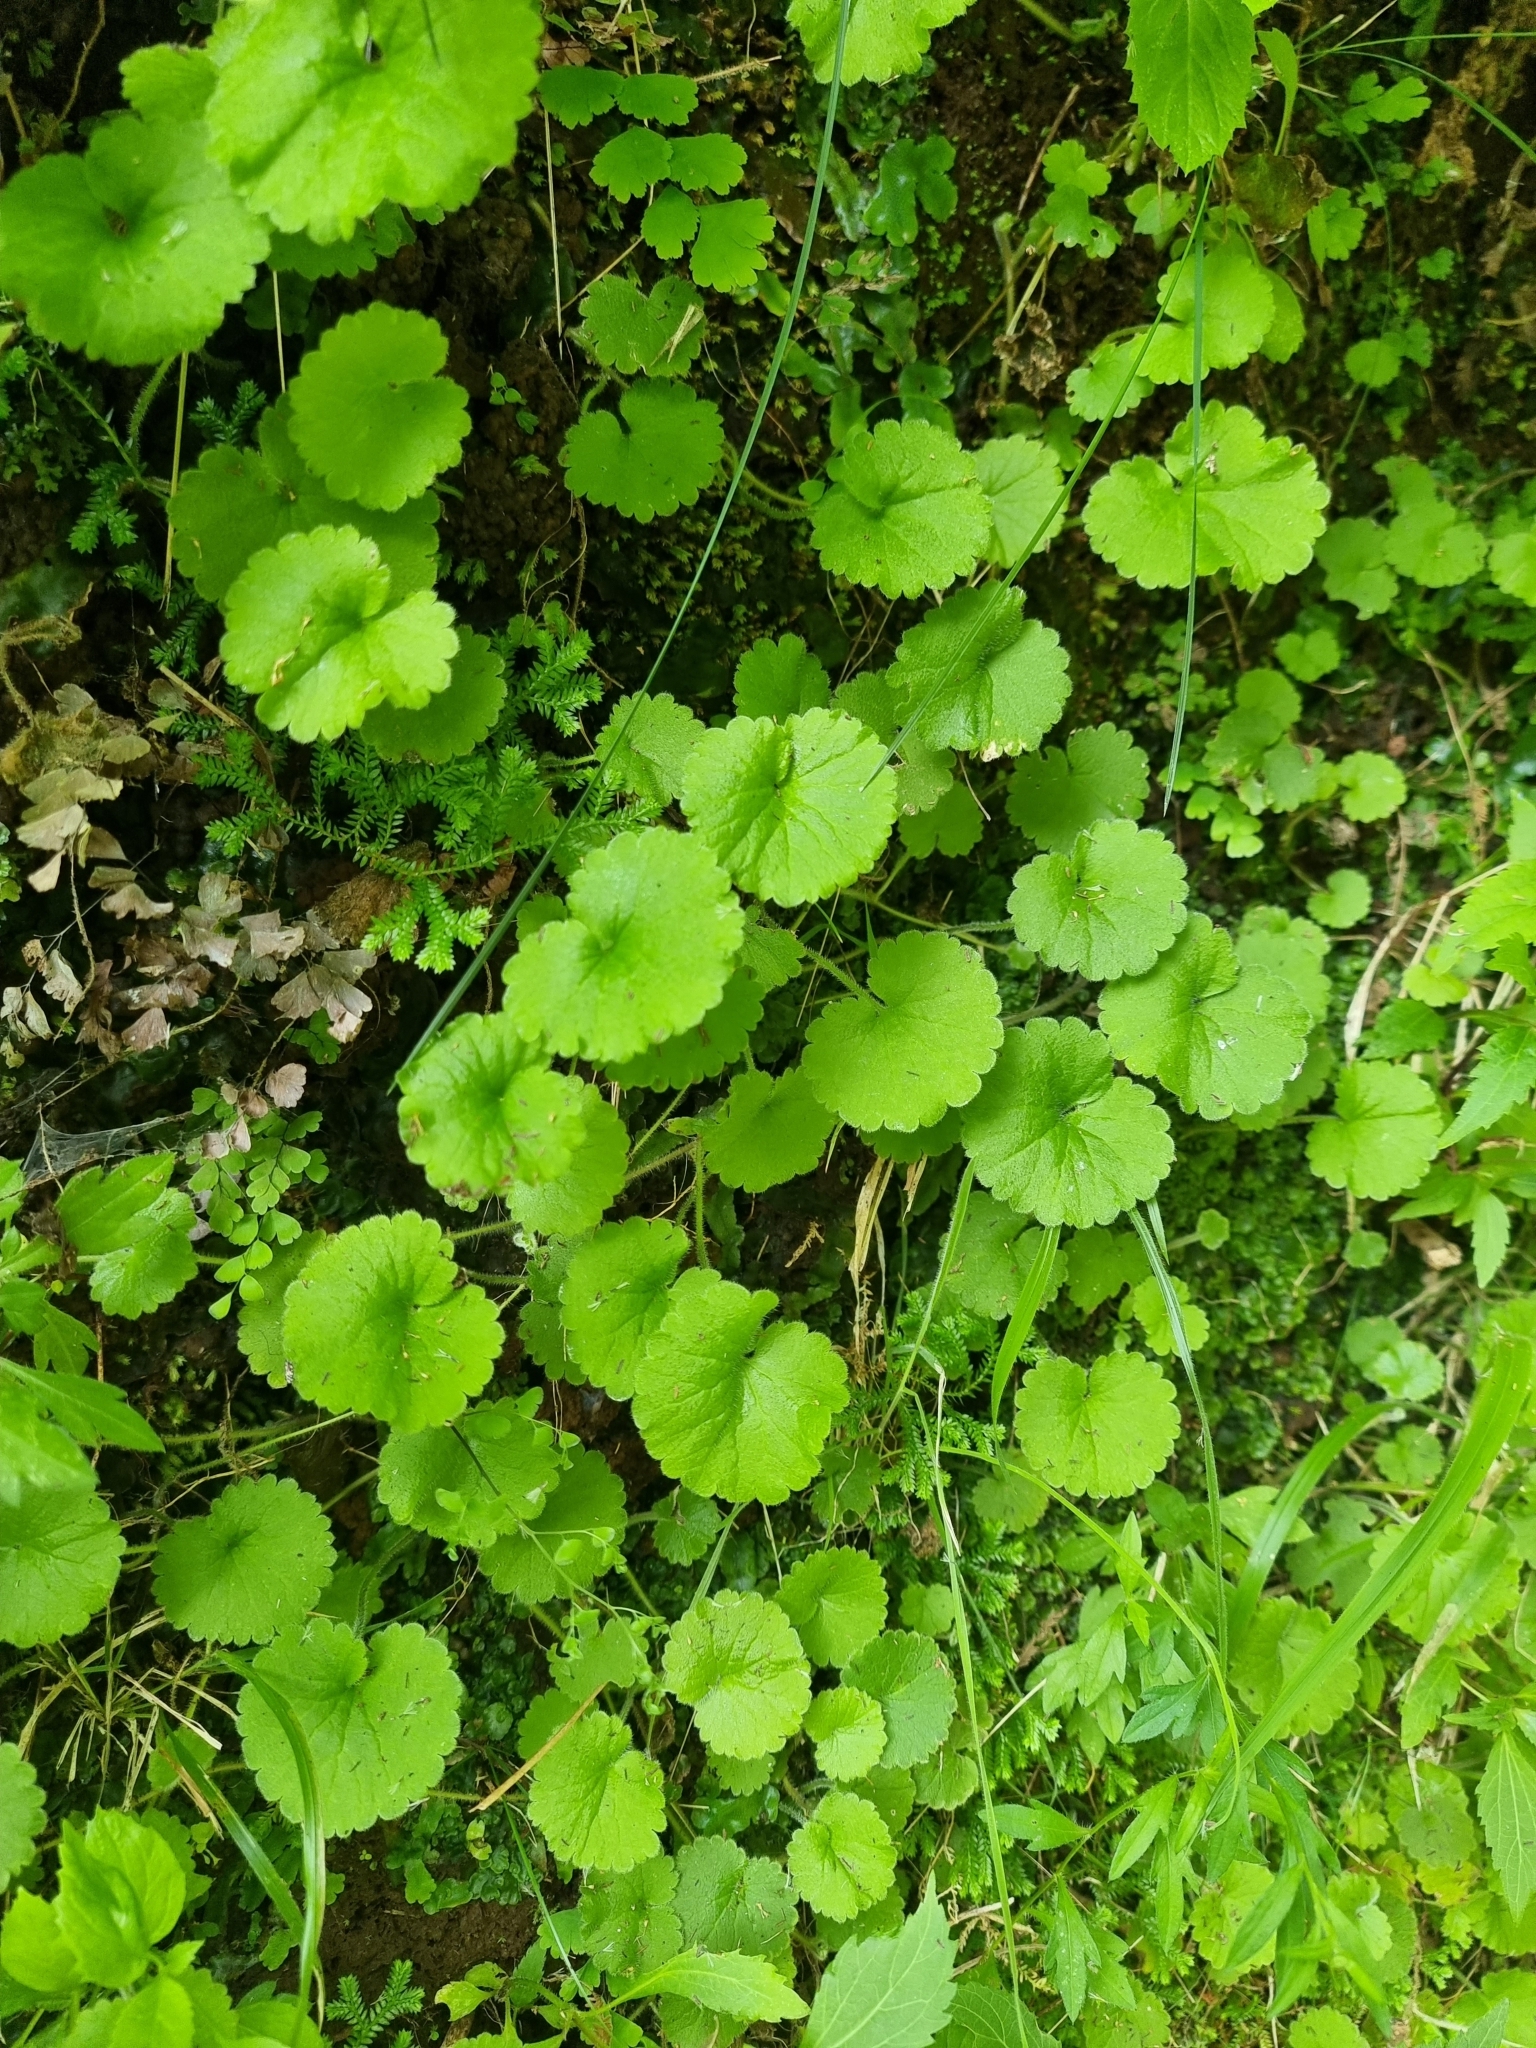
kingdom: Plantae
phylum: Tracheophyta
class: Magnoliopsida
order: Lamiales
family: Plantaginaceae
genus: Sibthorpia
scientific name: Sibthorpia peregrina
